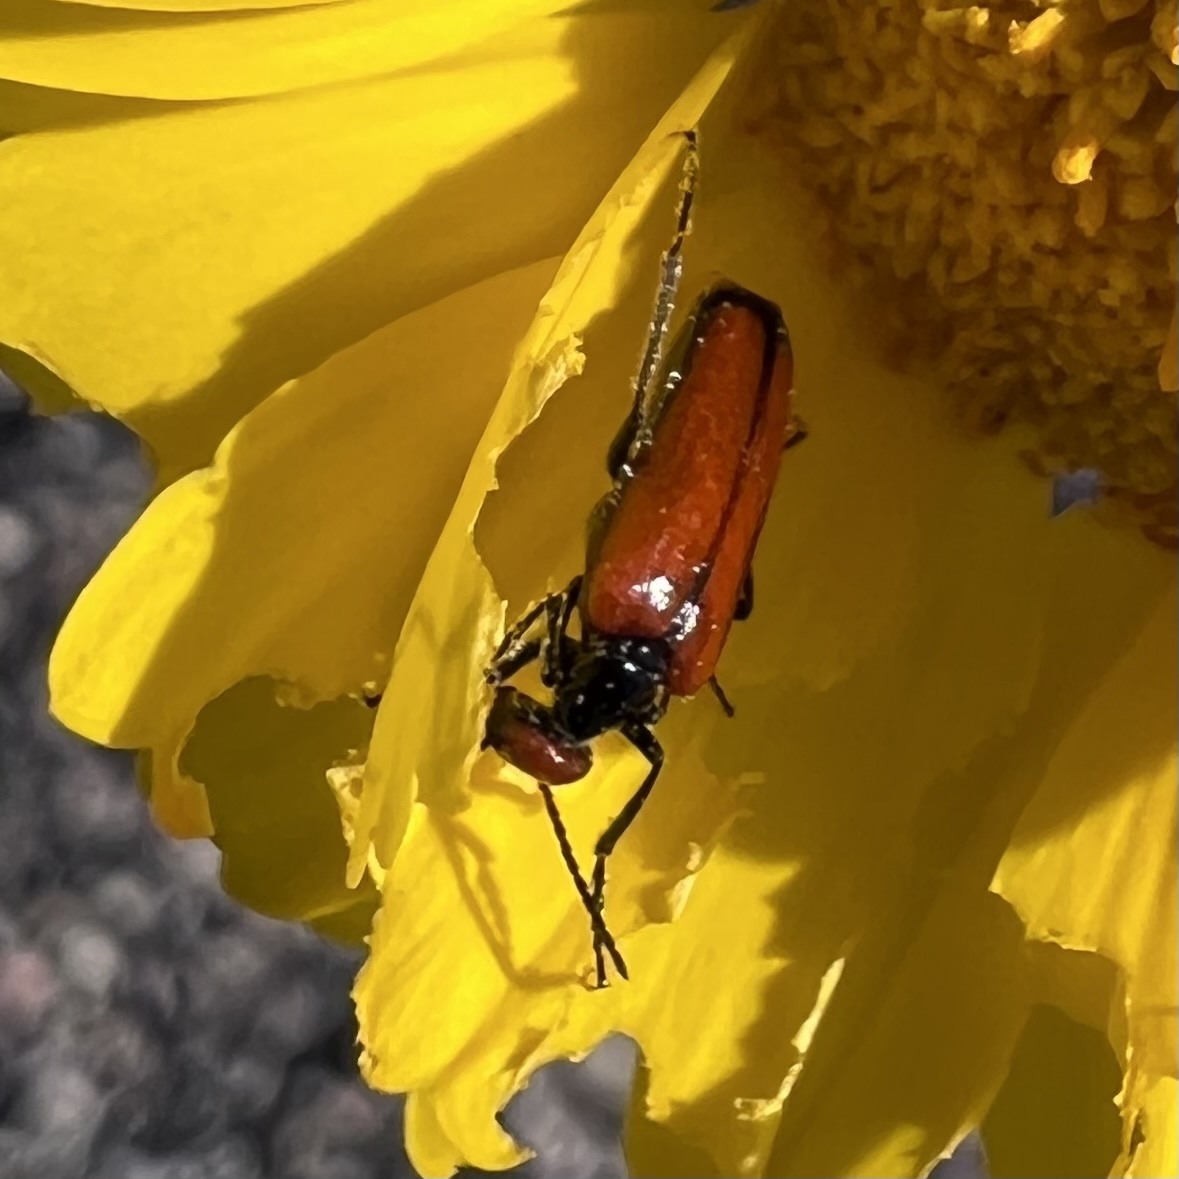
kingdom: Animalia
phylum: Arthropoda
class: Insecta
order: Coleoptera
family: Meloidae
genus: Eupompha
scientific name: Eupompha schwarzi
